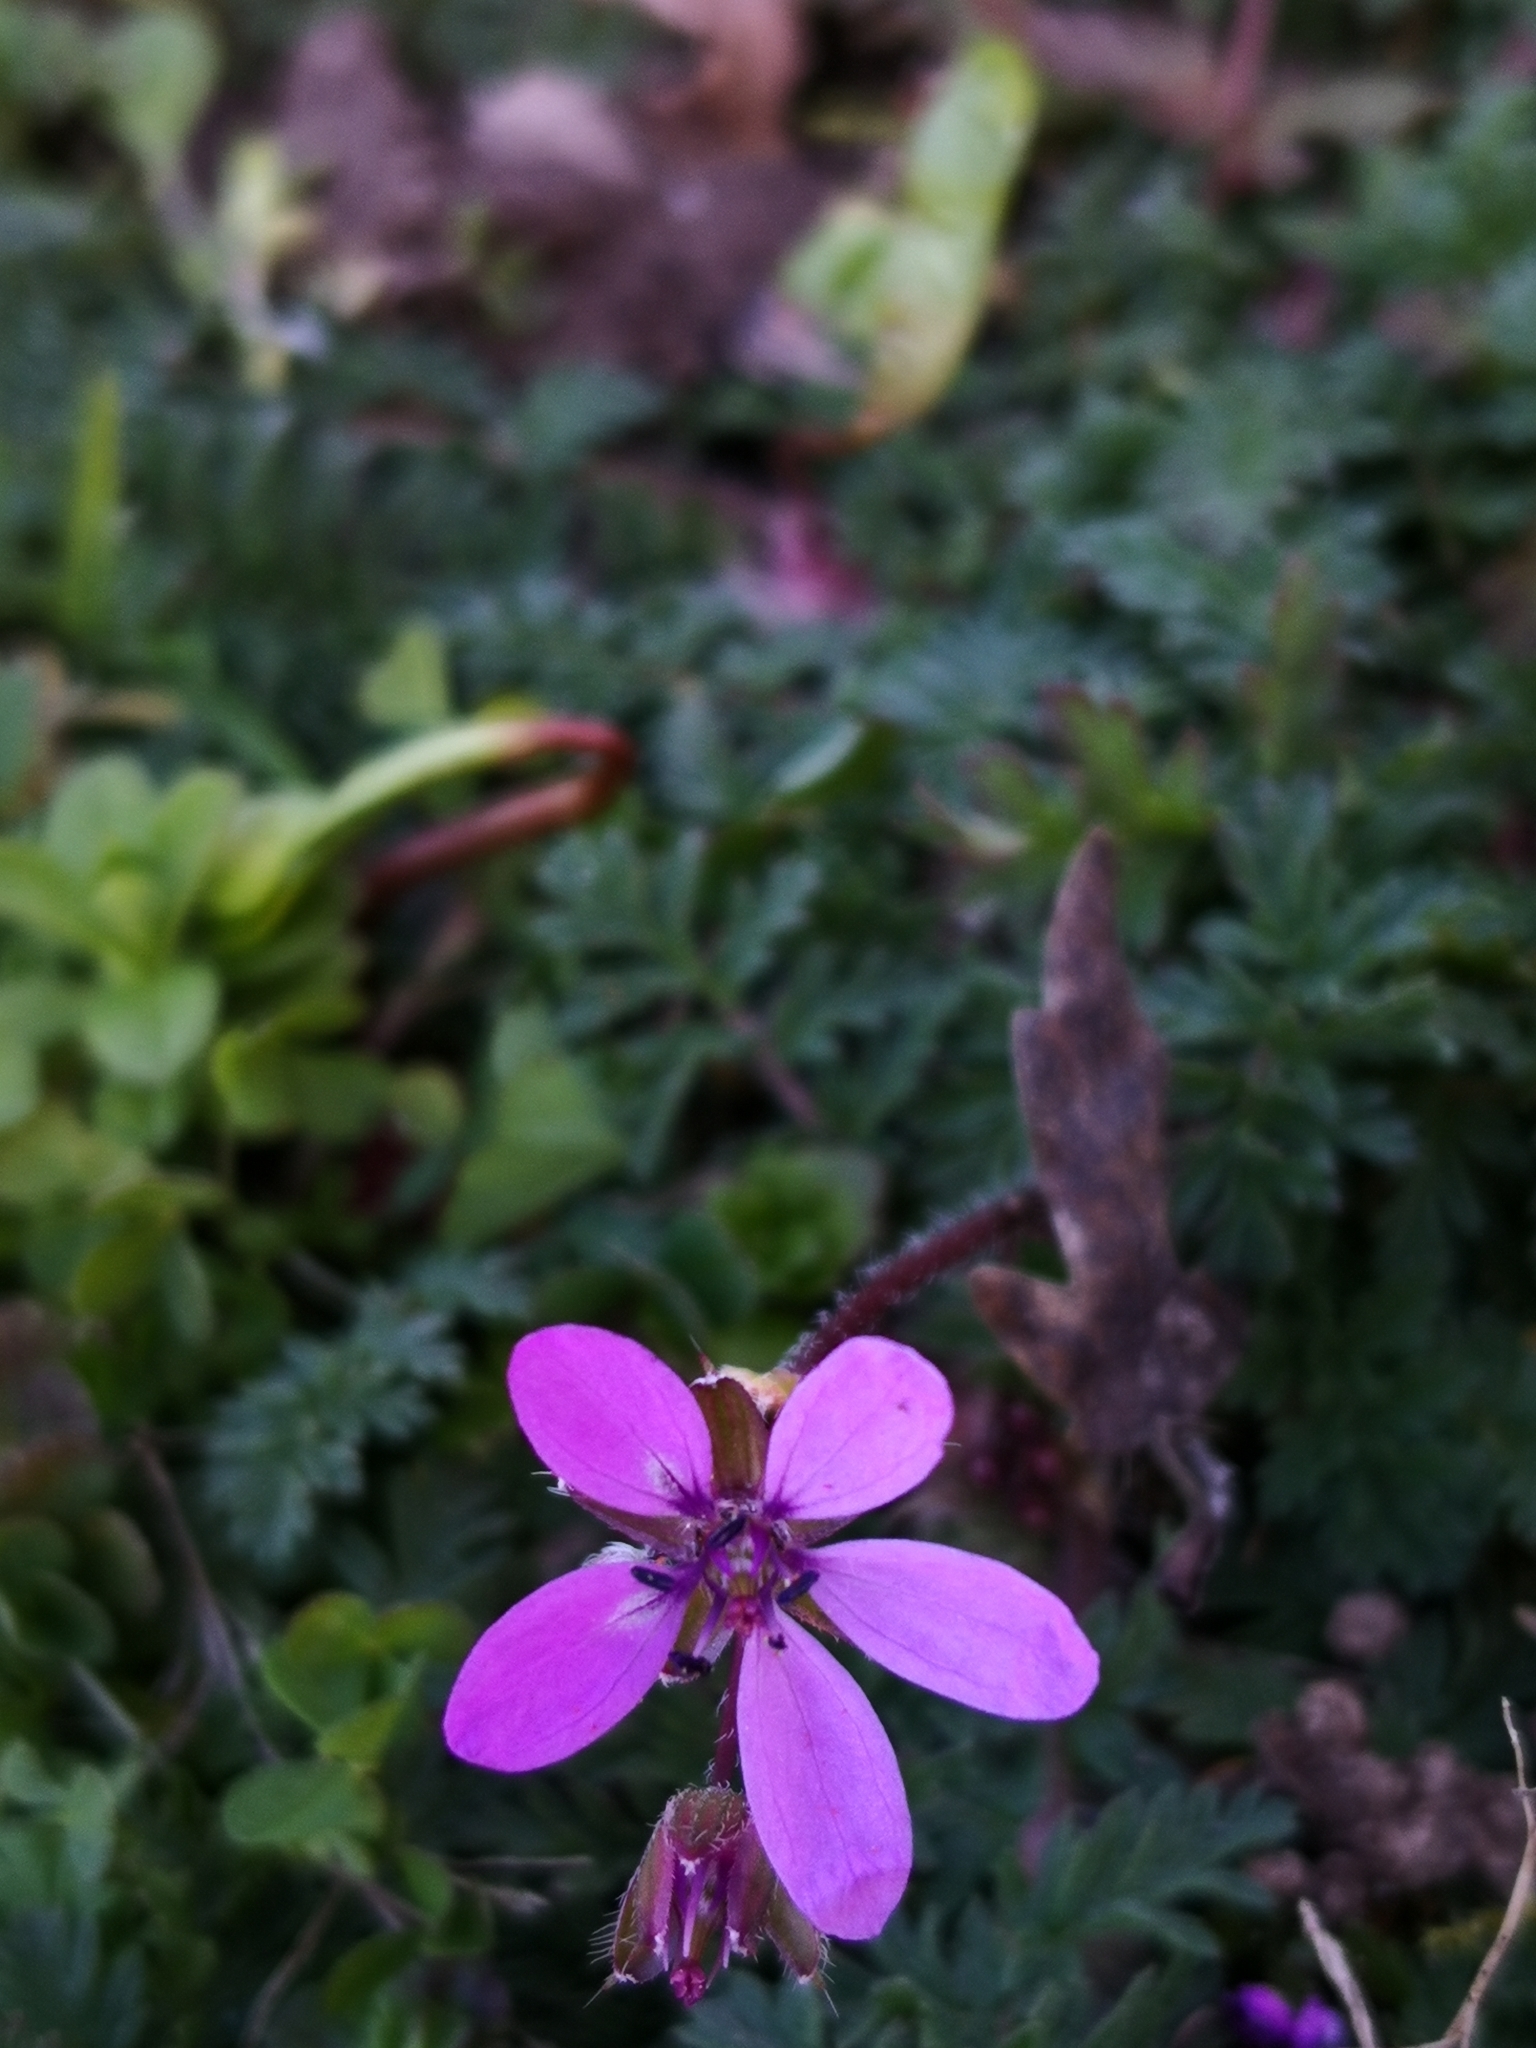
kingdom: Plantae
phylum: Tracheophyta
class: Magnoliopsida
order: Geraniales
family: Geraniaceae
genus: Erodium
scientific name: Erodium cicutarium
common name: Common stork's-bill
